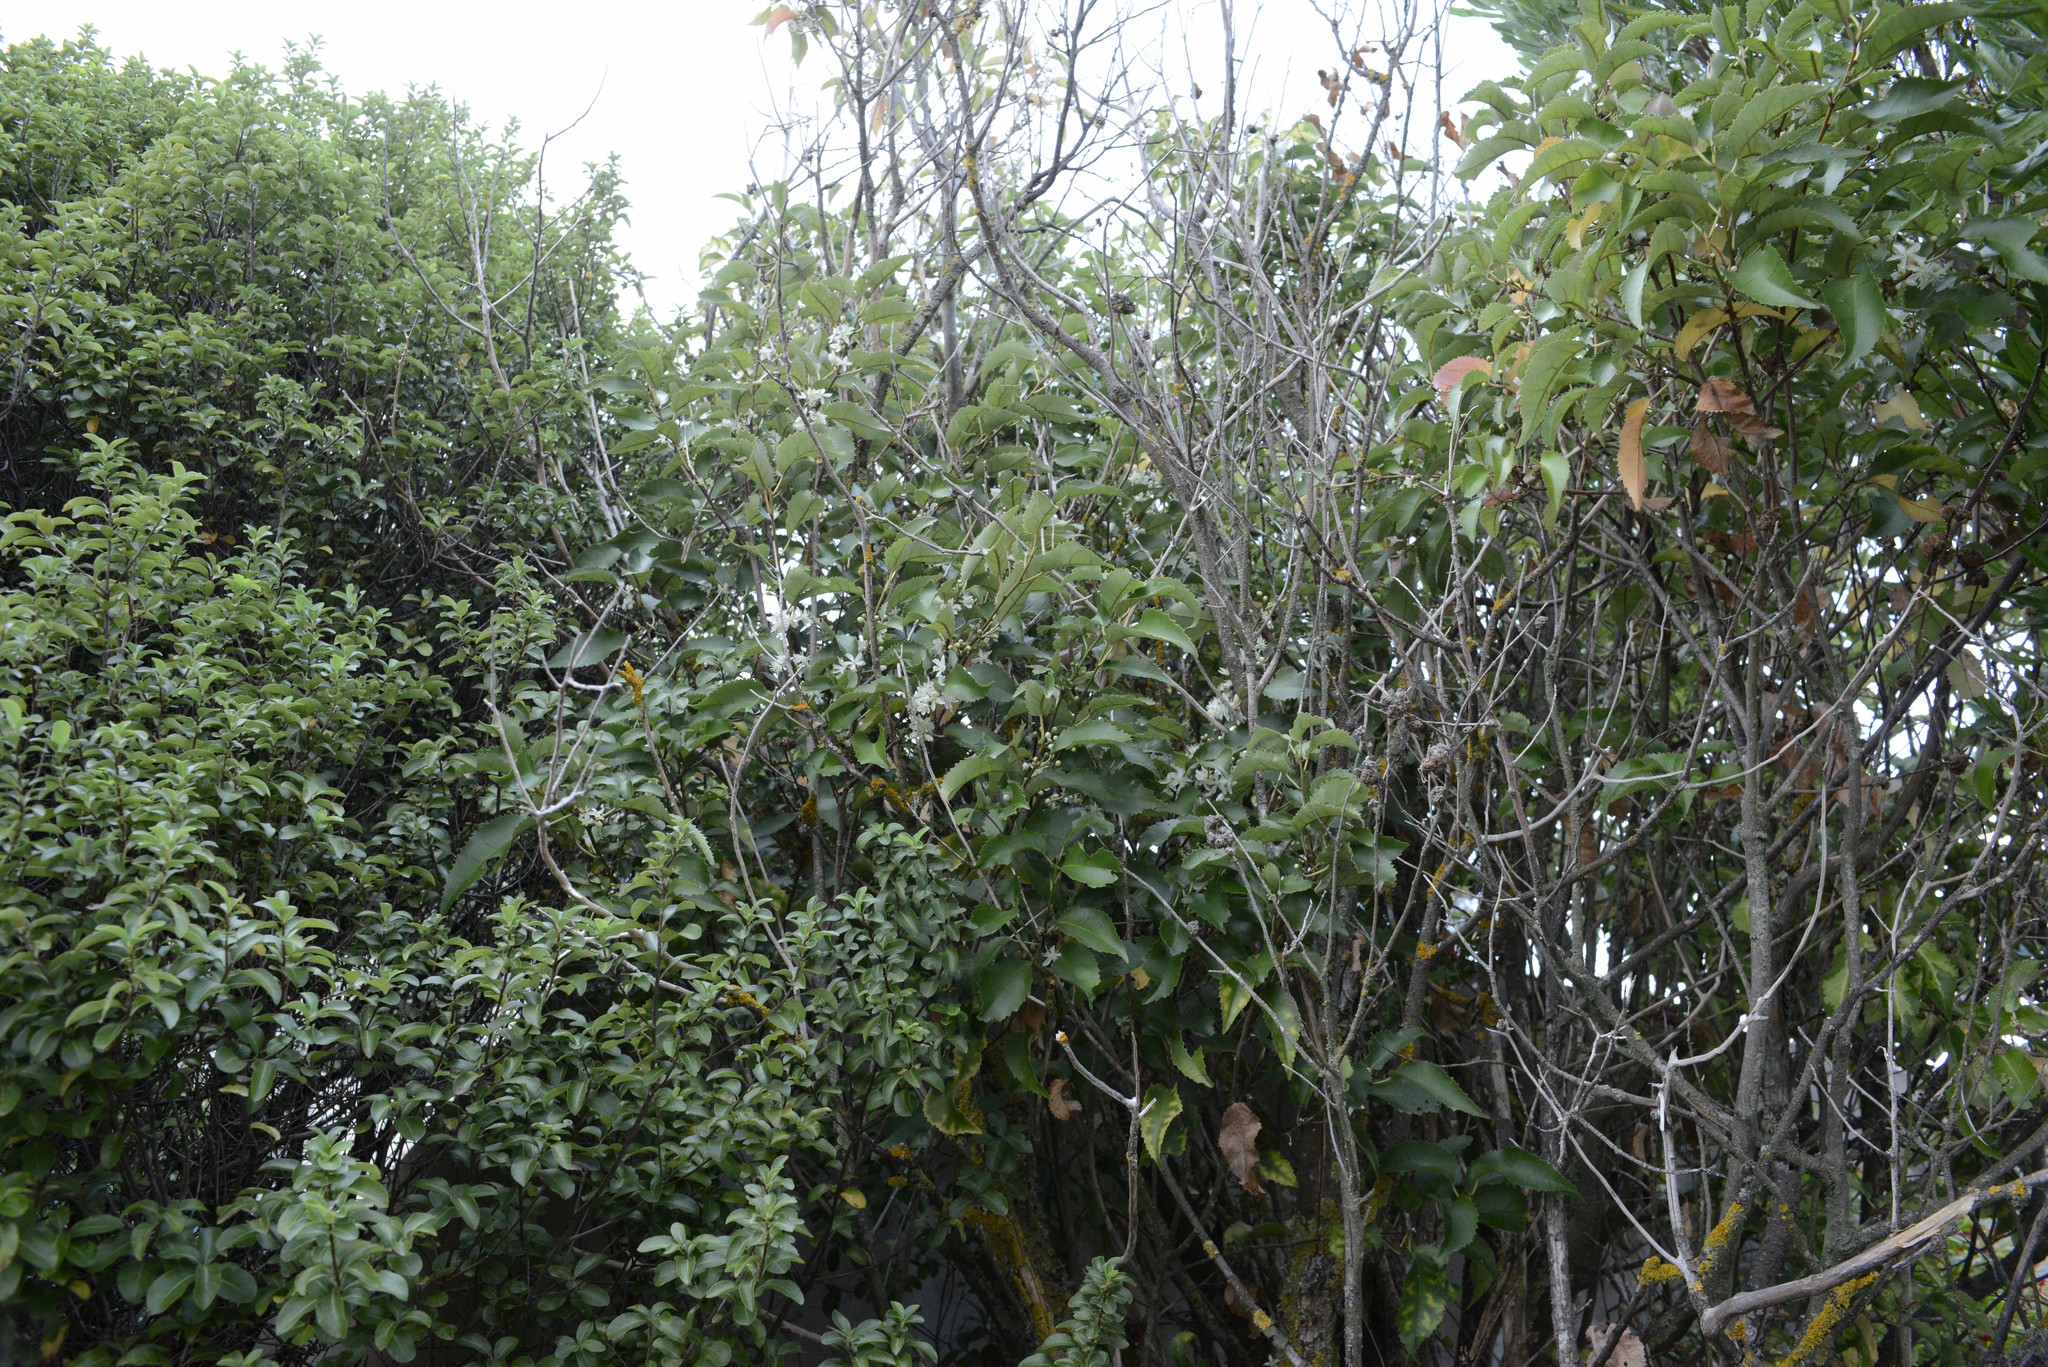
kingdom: Plantae
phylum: Tracheophyta
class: Magnoliopsida
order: Malvales
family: Malvaceae
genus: Hoheria
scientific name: Hoheria populnea
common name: Lacebark
